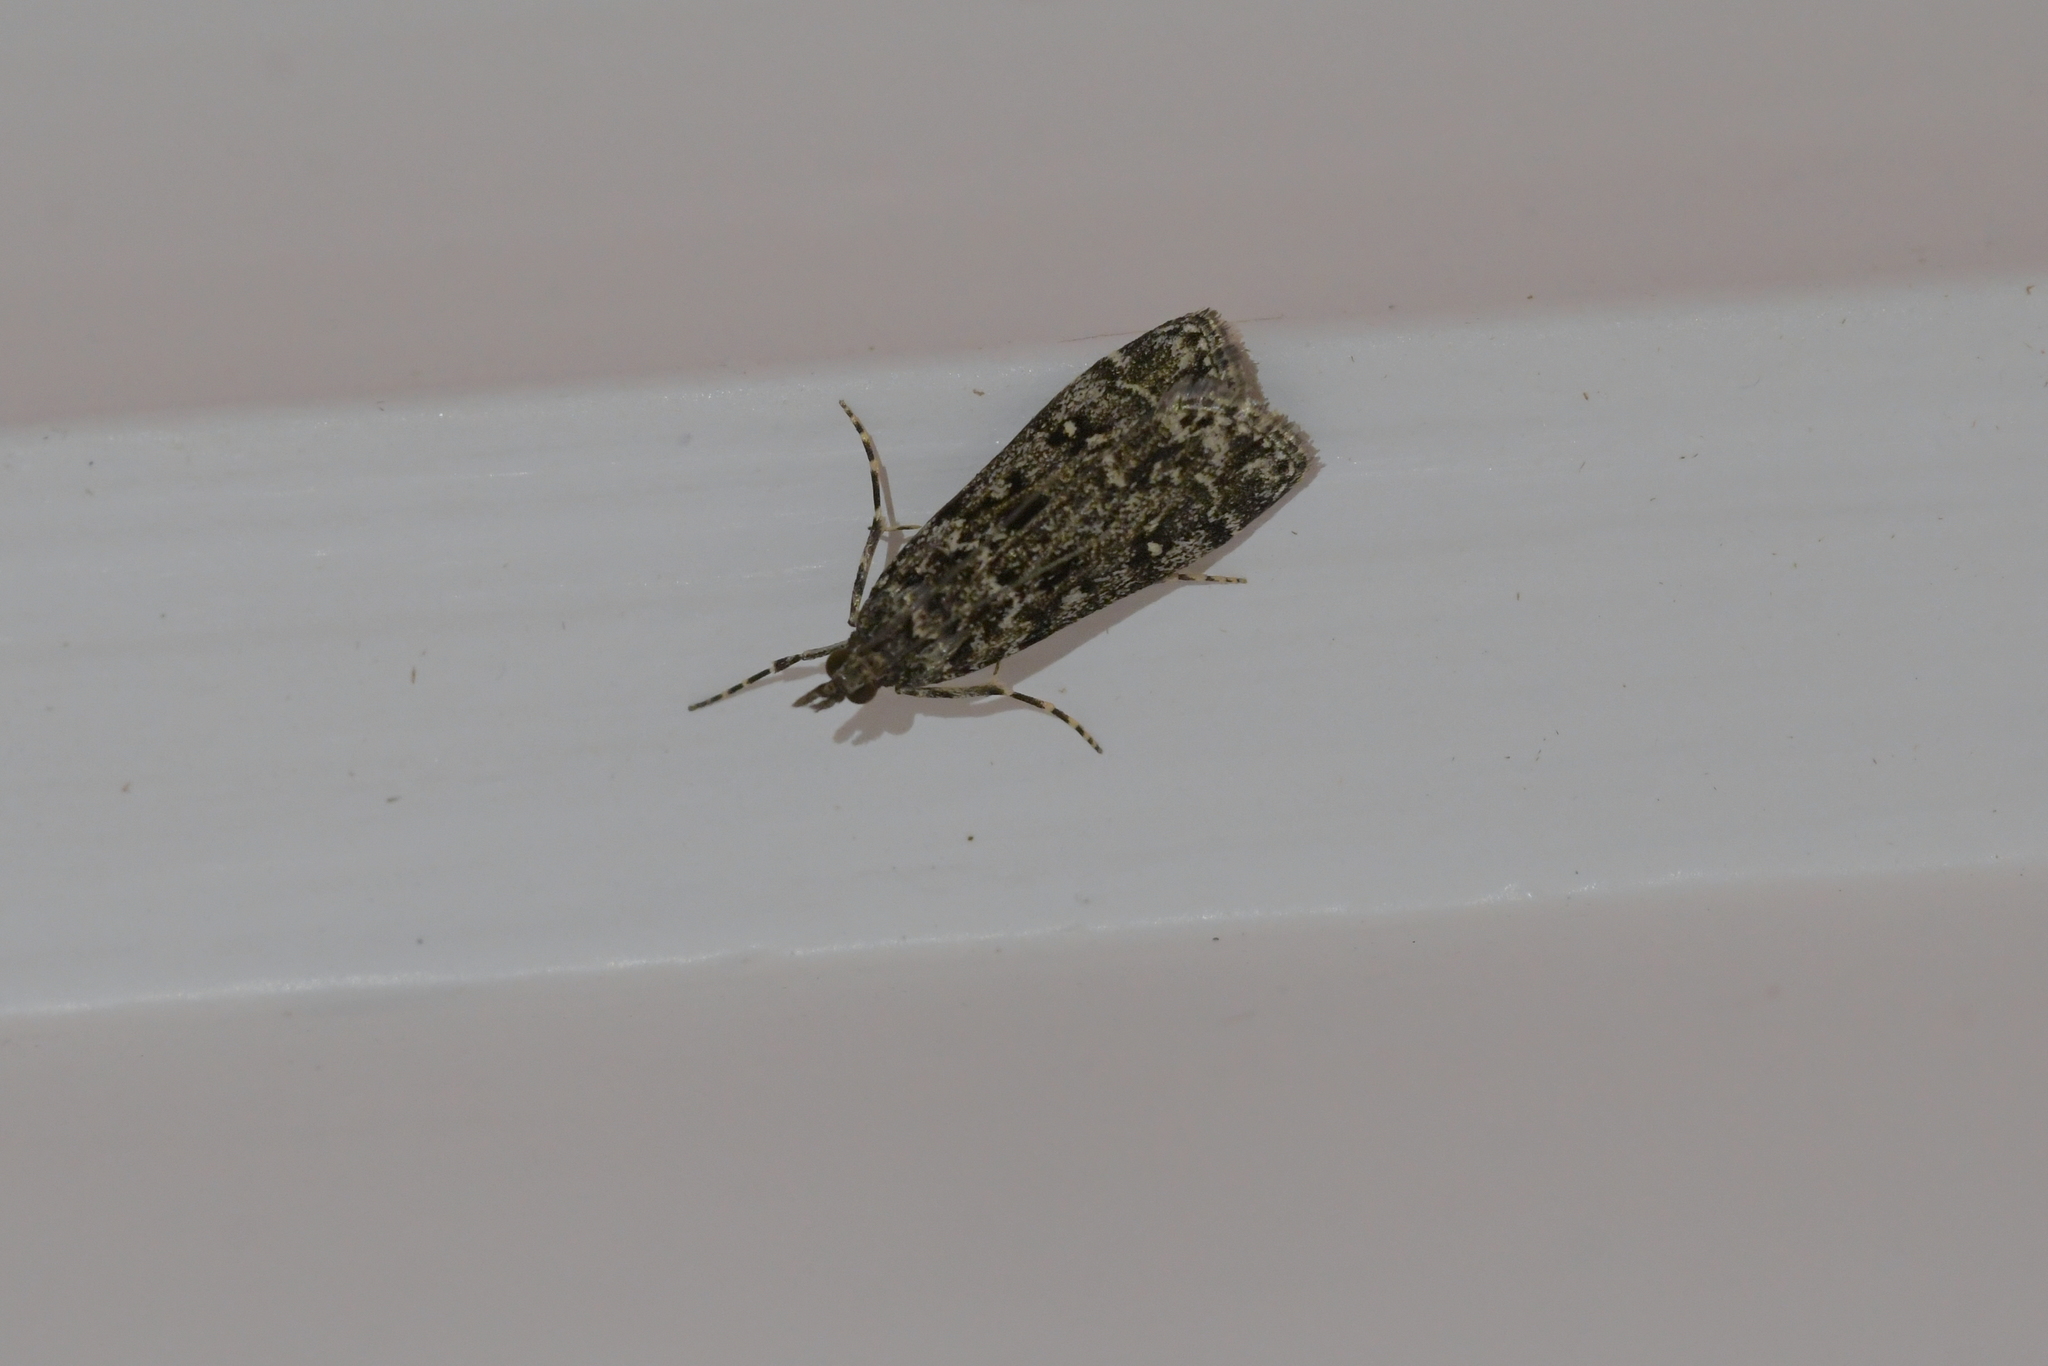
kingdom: Animalia
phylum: Arthropoda
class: Insecta
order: Lepidoptera
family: Crambidae
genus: Eudonia
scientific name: Eudonia philerga
